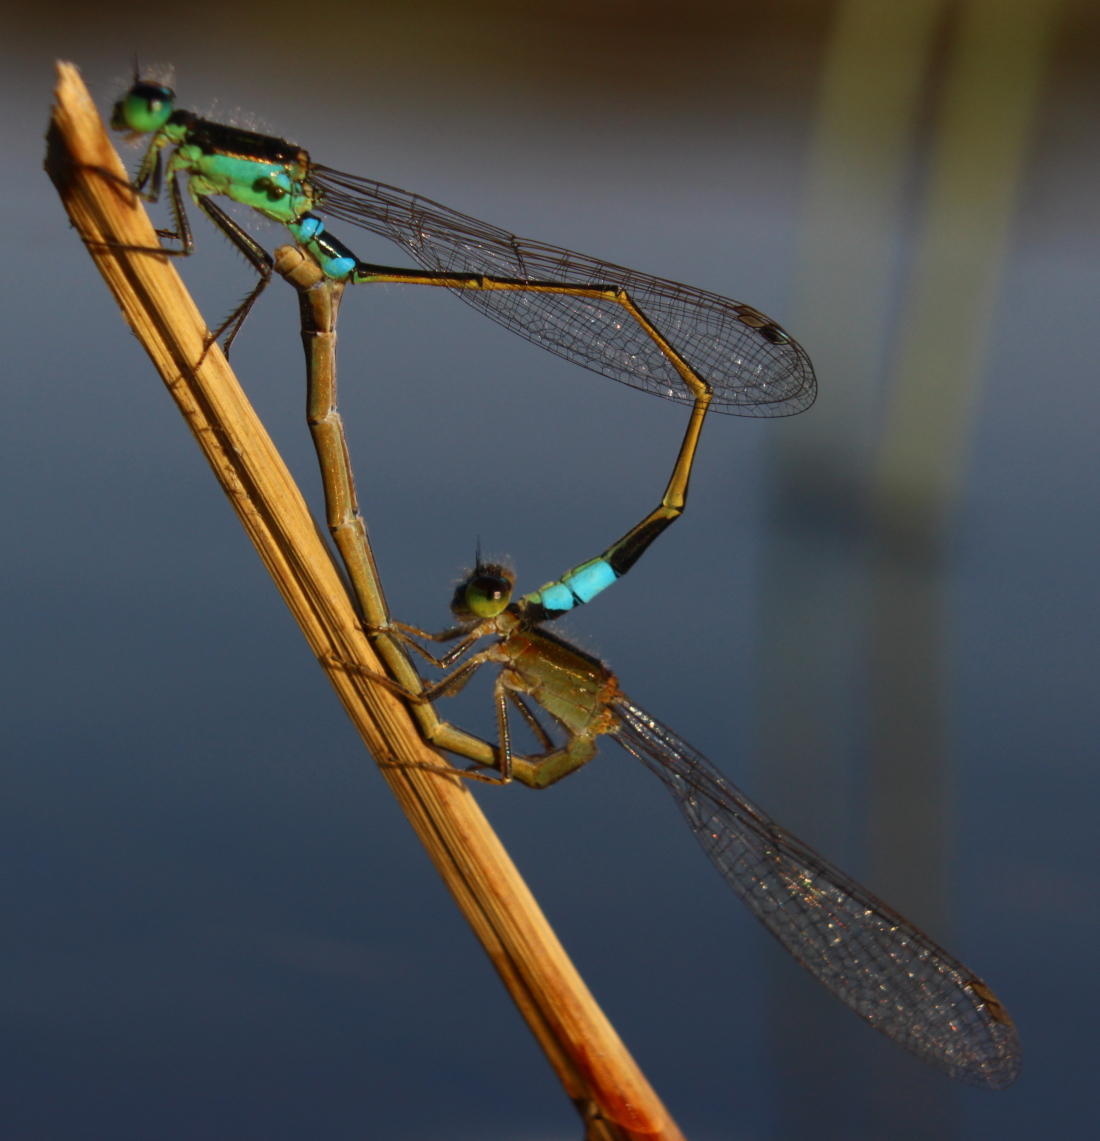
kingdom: Animalia
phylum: Arthropoda
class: Insecta
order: Odonata
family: Coenagrionidae
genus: Ischnura
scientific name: Ischnura senegalensis
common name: Tropical bluetail
